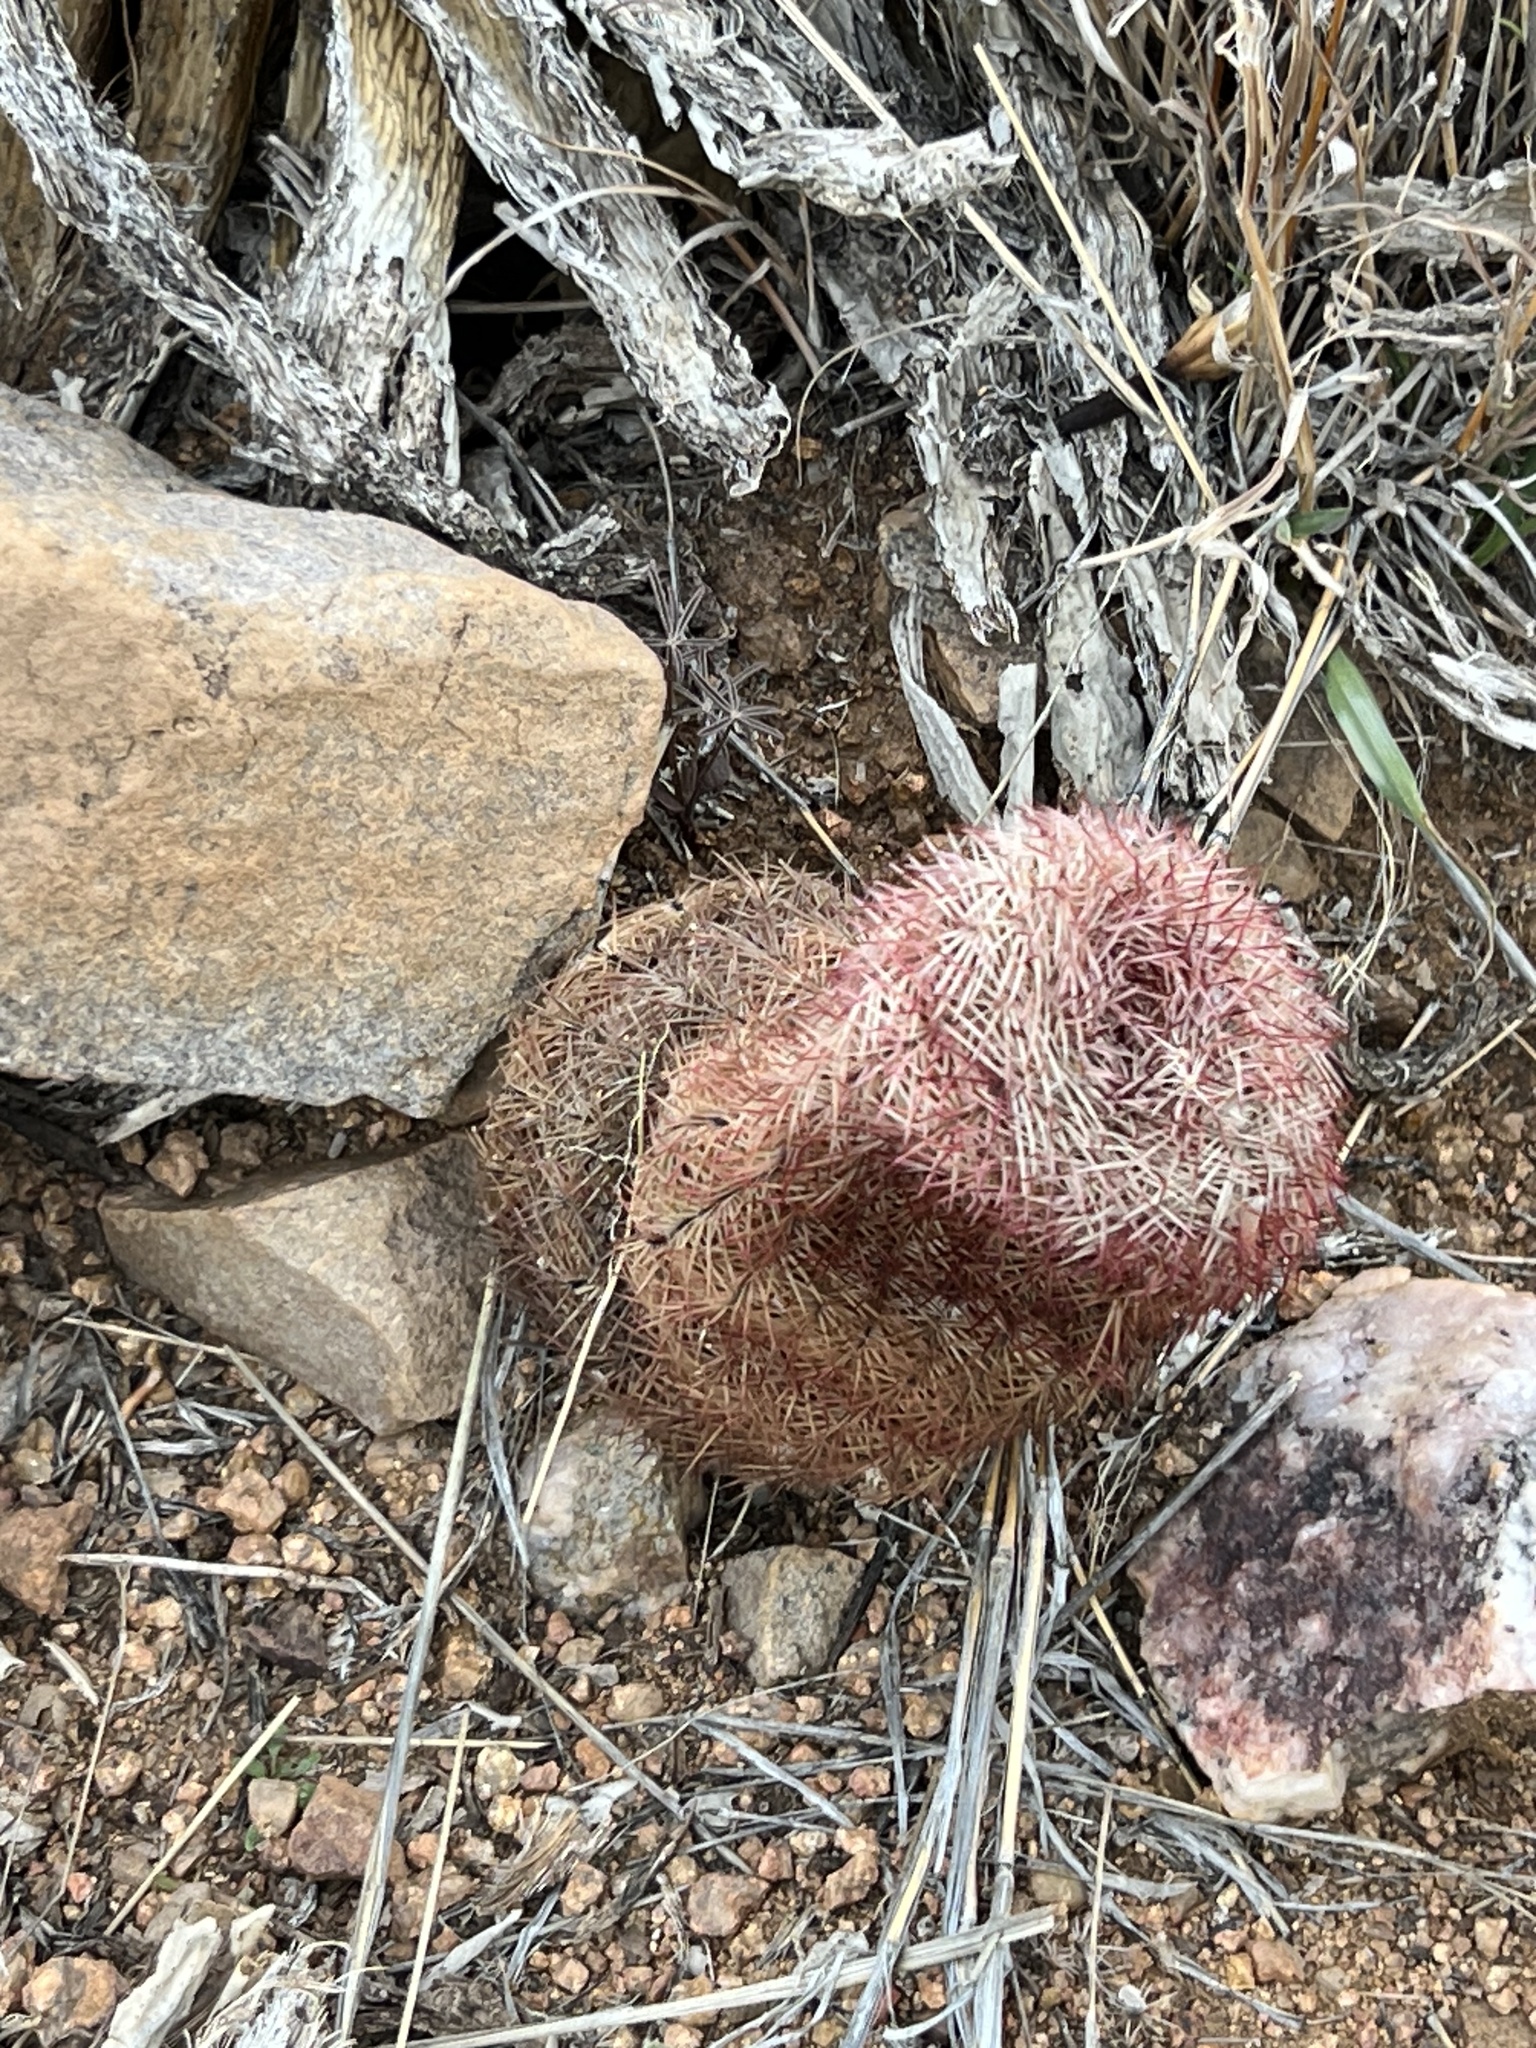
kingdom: Plantae
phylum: Tracheophyta
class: Magnoliopsida
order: Caryophyllales
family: Cactaceae
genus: Echinocereus
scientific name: Echinocereus rigidissimus
